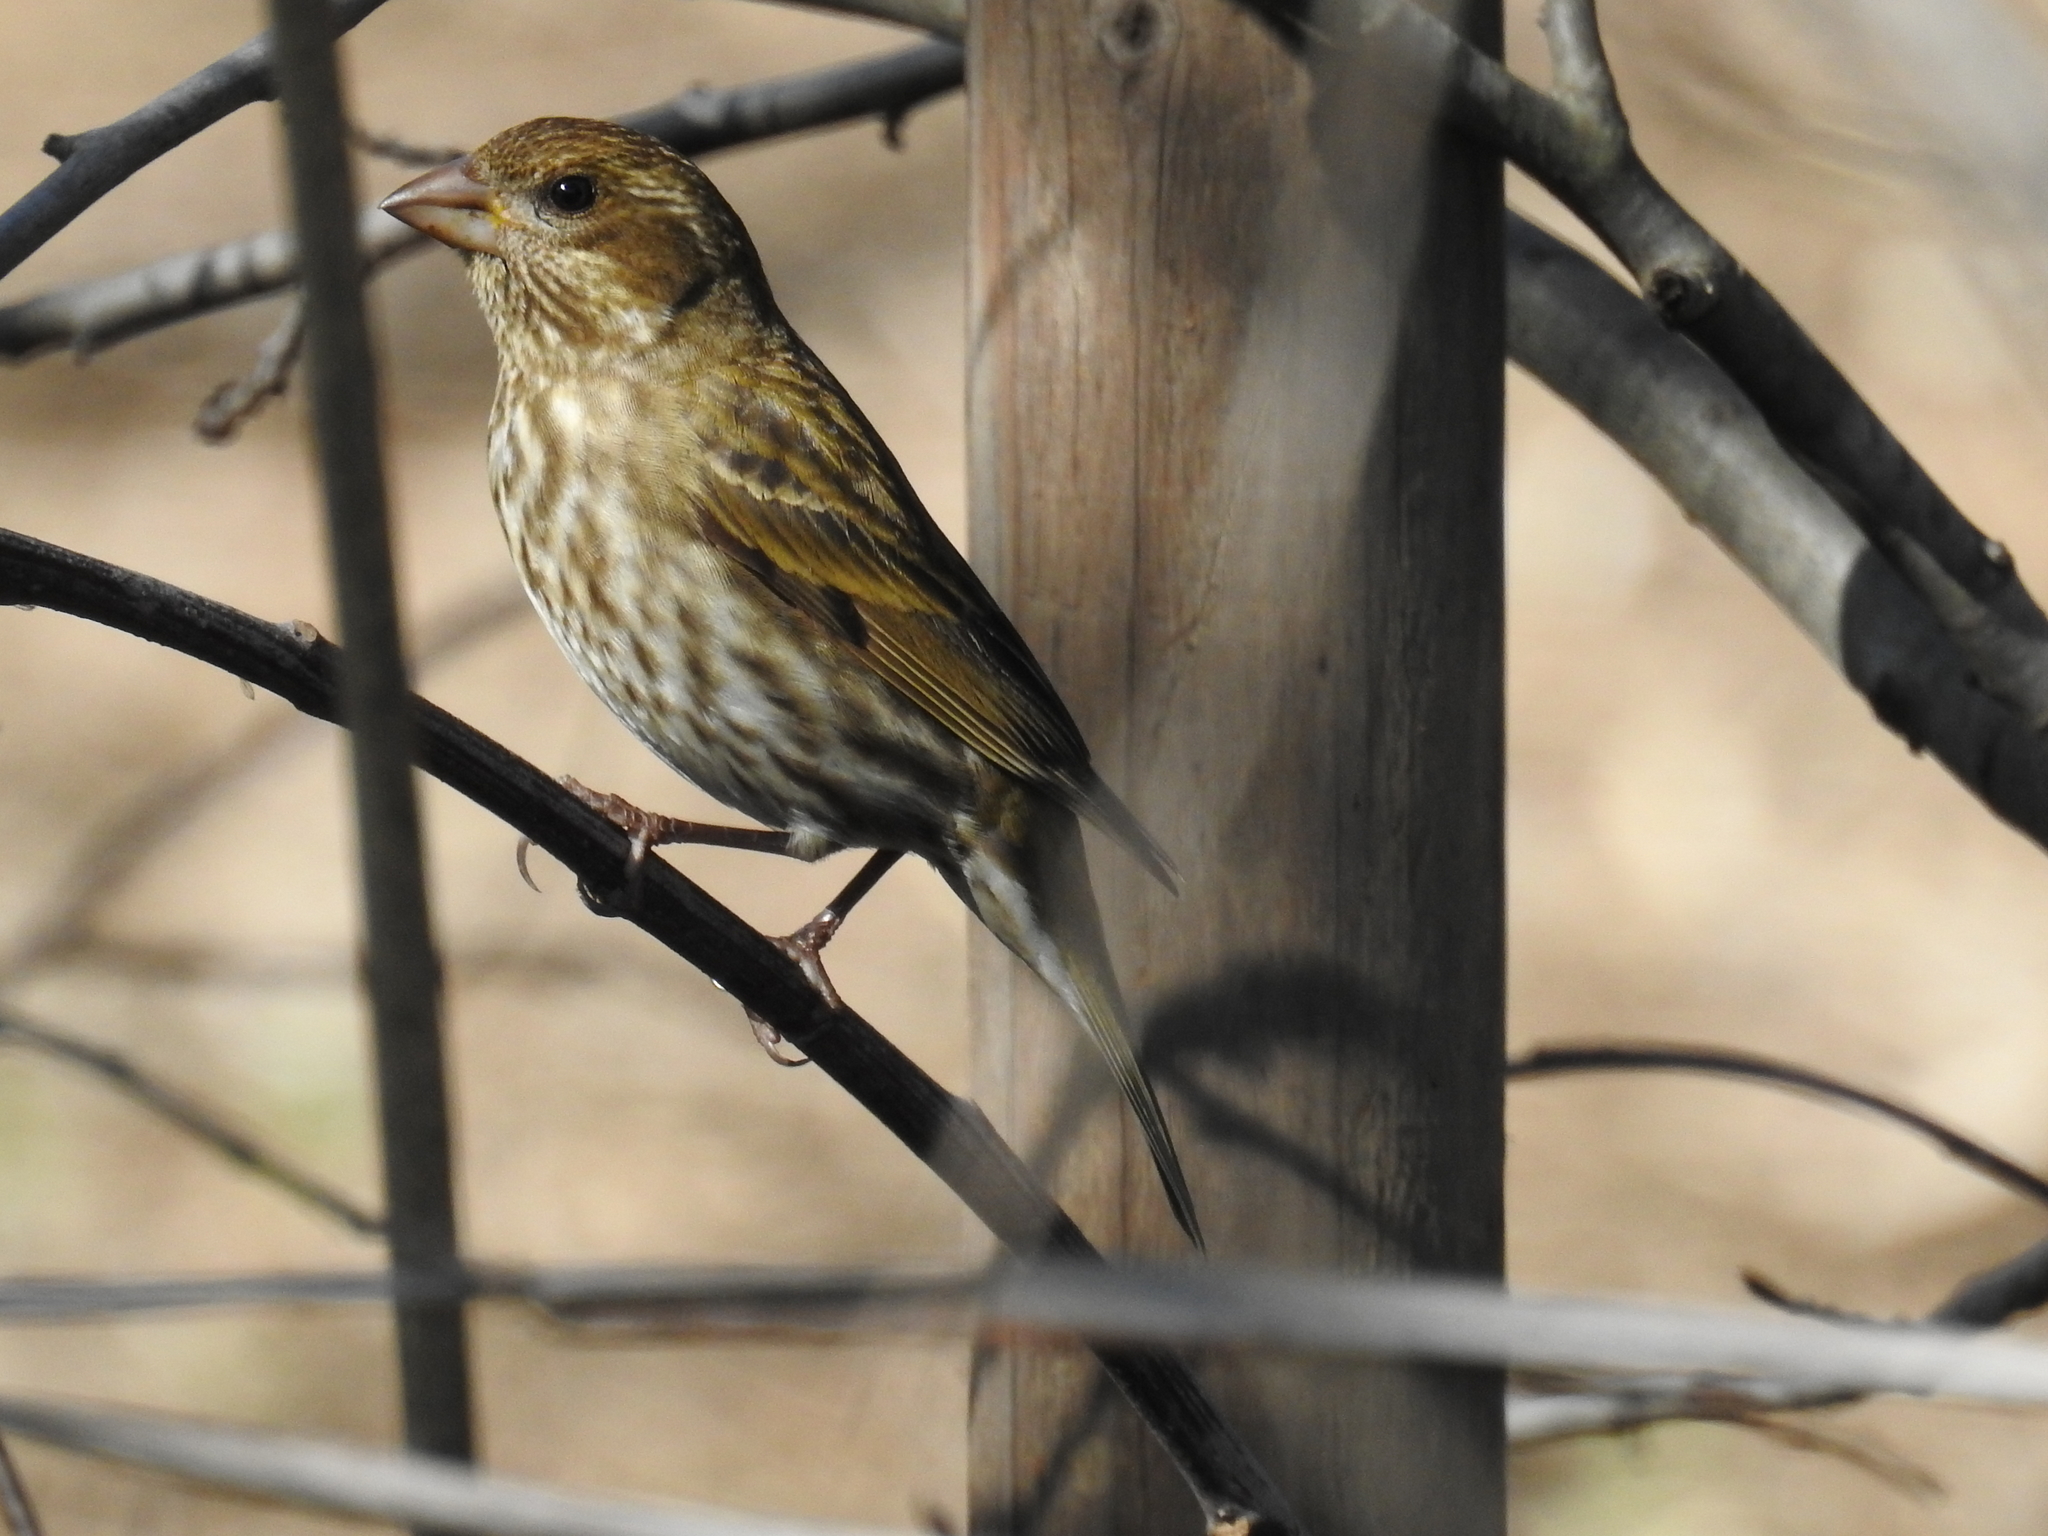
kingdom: Animalia
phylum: Chordata
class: Aves
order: Passeriformes
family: Fringillidae
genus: Haemorhous
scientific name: Haemorhous purpureus
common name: Purple finch
